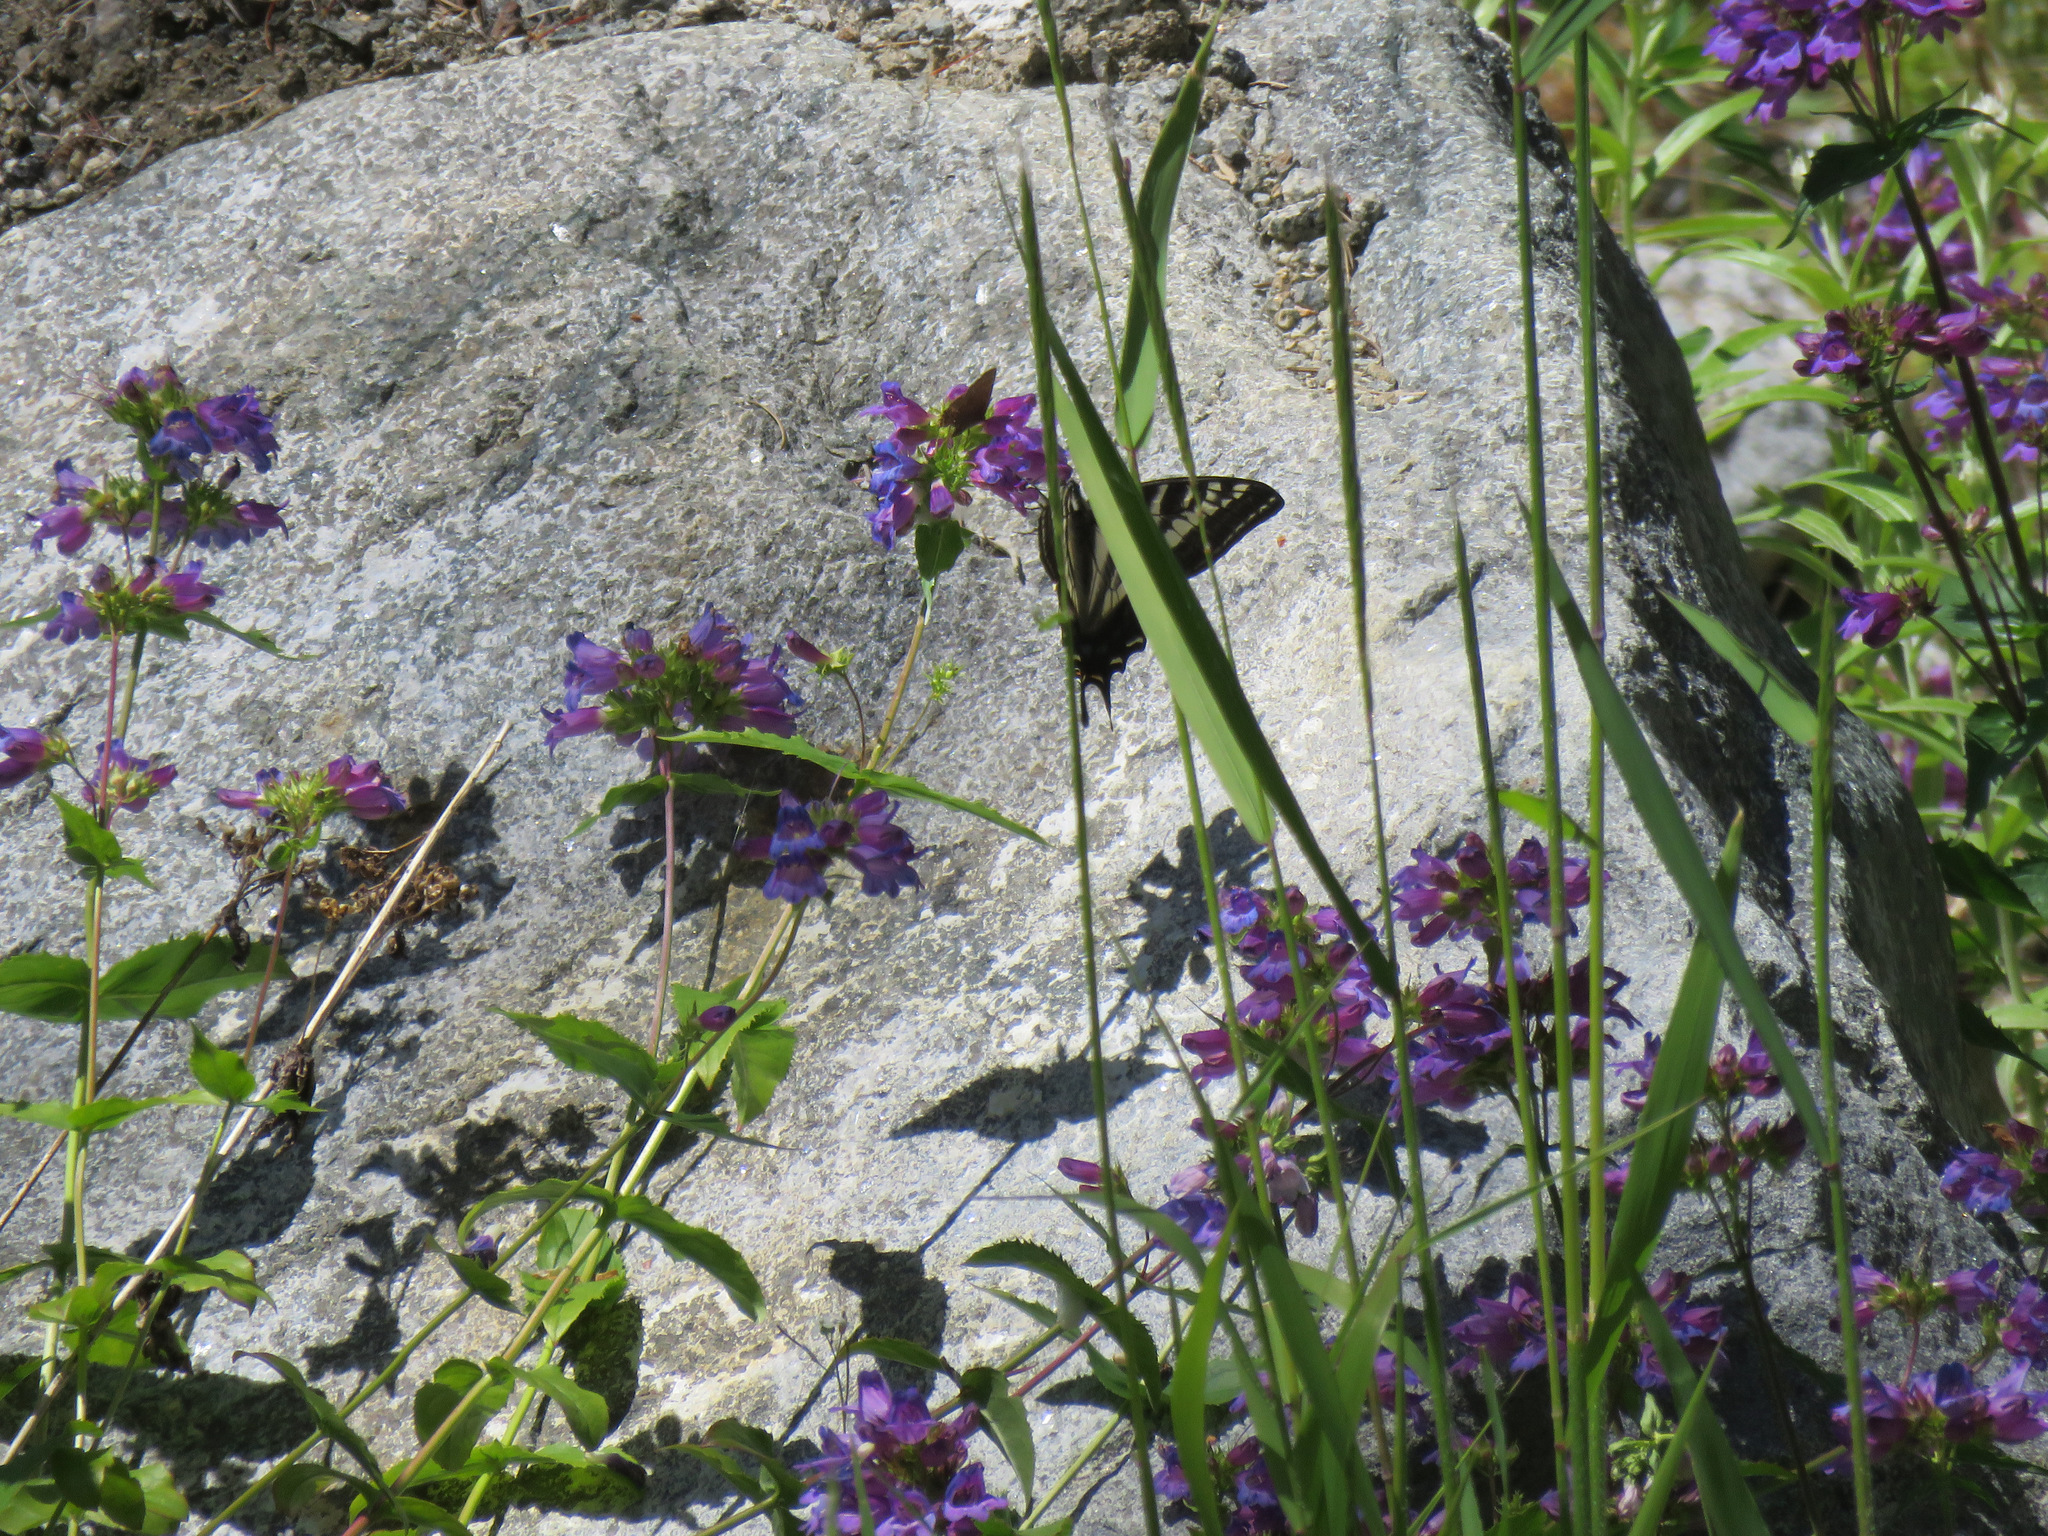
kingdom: Animalia
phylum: Arthropoda
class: Insecta
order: Lepidoptera
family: Papilionidae
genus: Papilio
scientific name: Papilio eurymedon
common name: Pale tiger swallowtail
